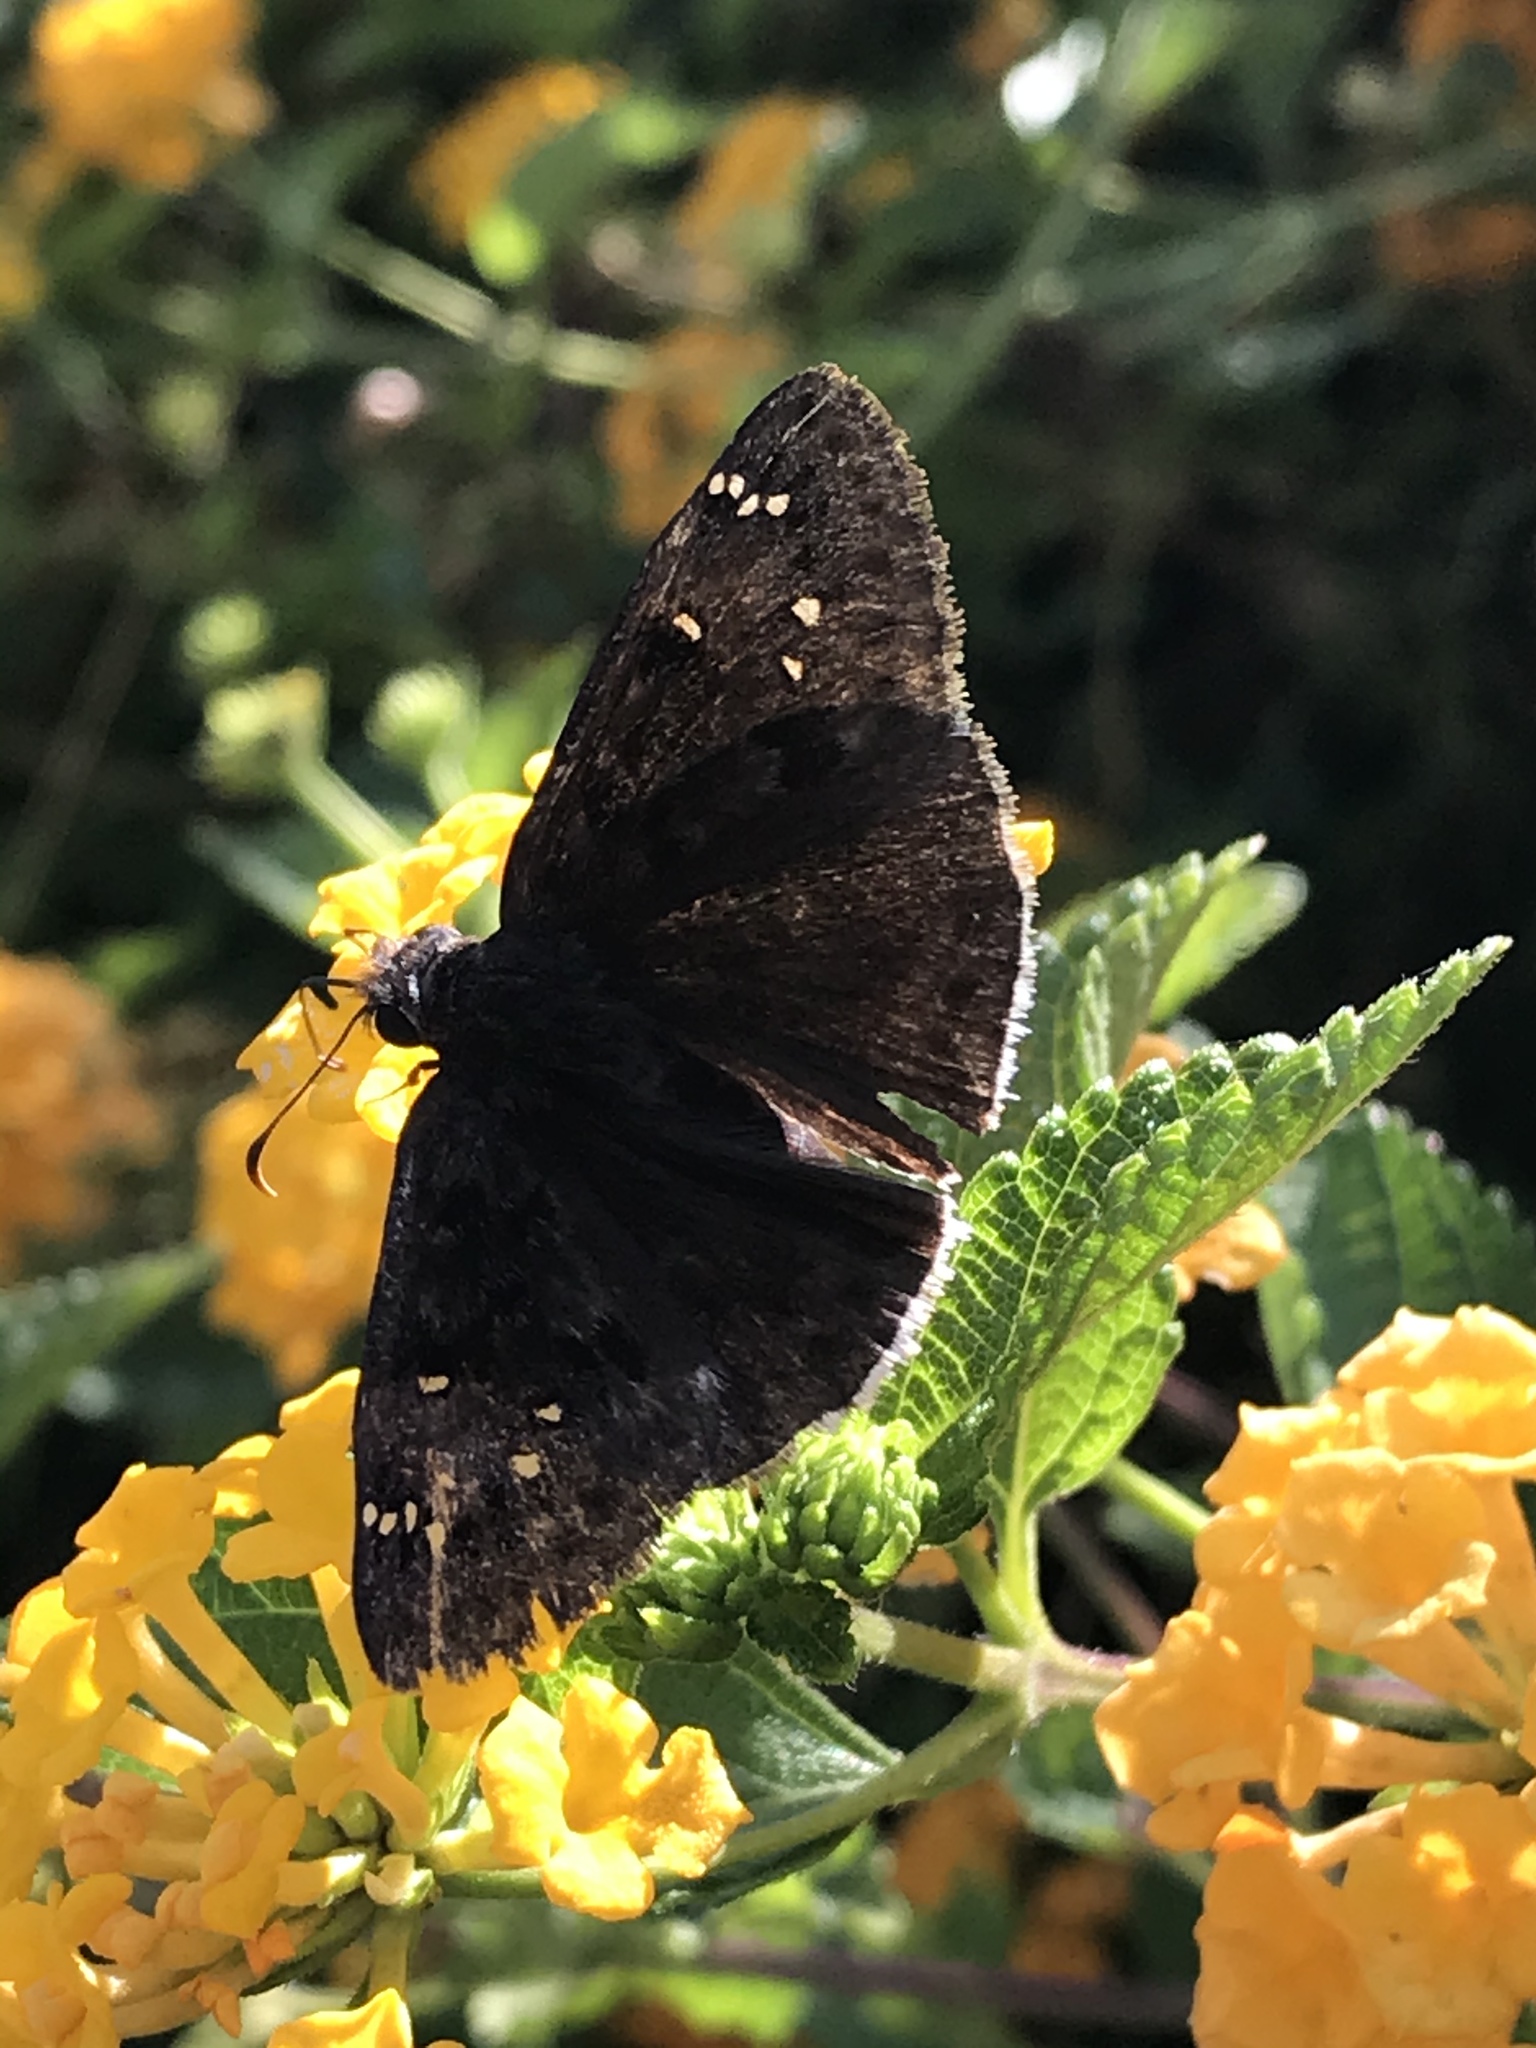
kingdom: Animalia
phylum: Arthropoda
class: Insecta
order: Lepidoptera
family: Hesperiidae
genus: Erynnis
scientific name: Erynnis tristis
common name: Mournful duskywing
